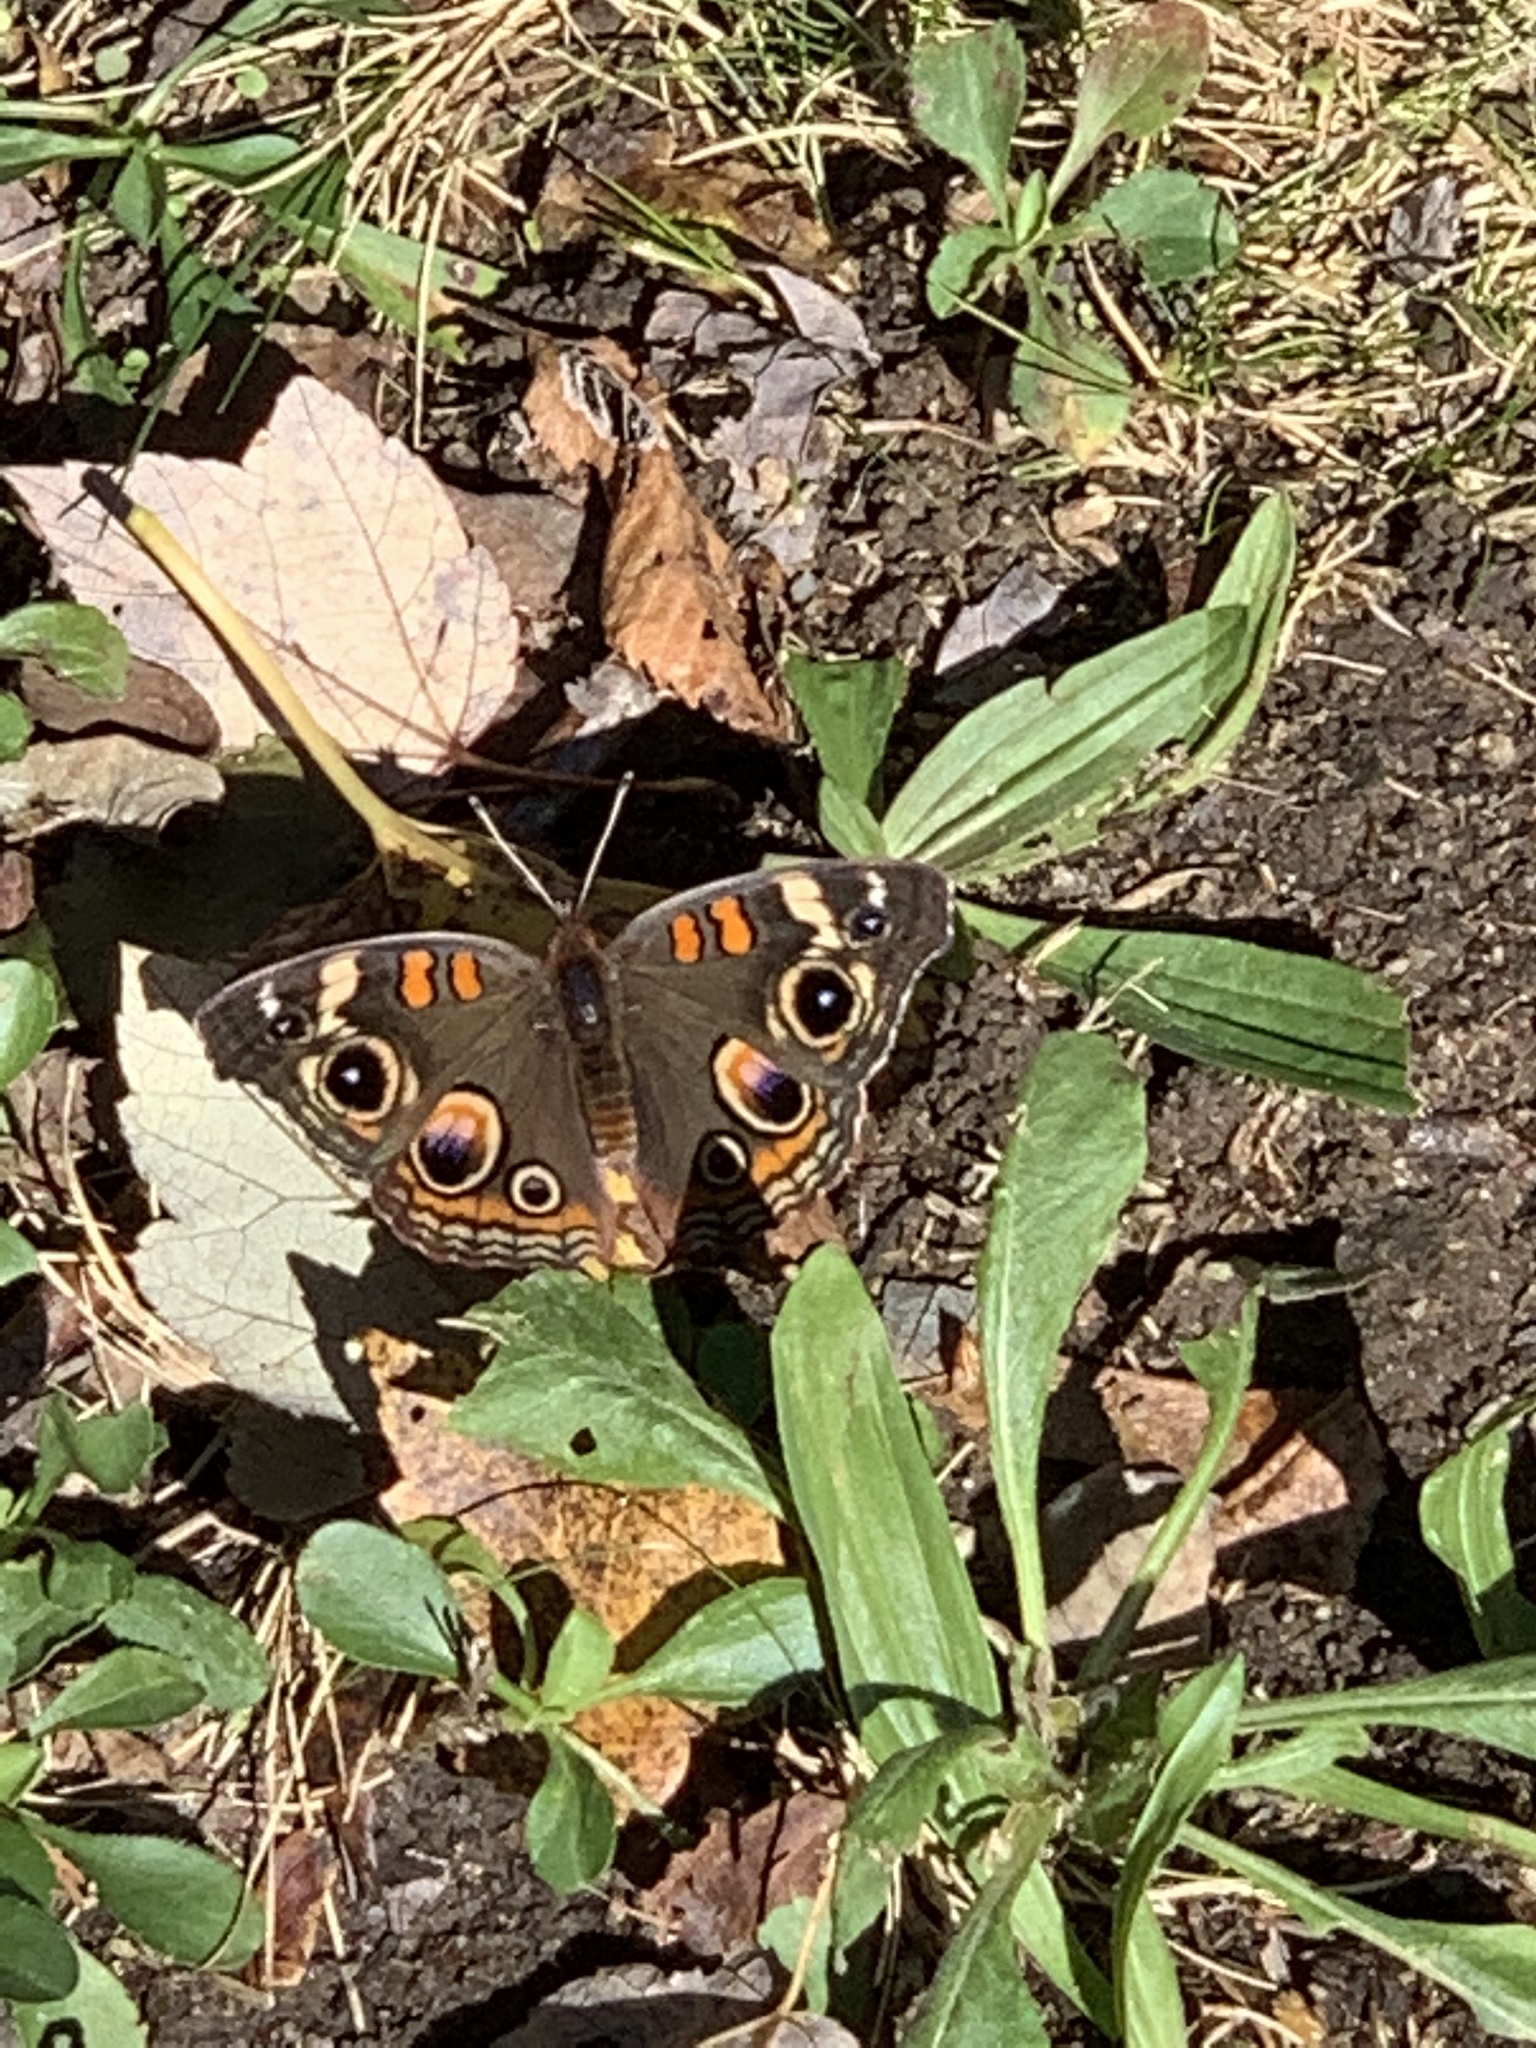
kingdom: Animalia
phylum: Arthropoda
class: Insecta
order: Lepidoptera
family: Nymphalidae
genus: Junonia
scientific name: Junonia coenia
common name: Common buckeye
